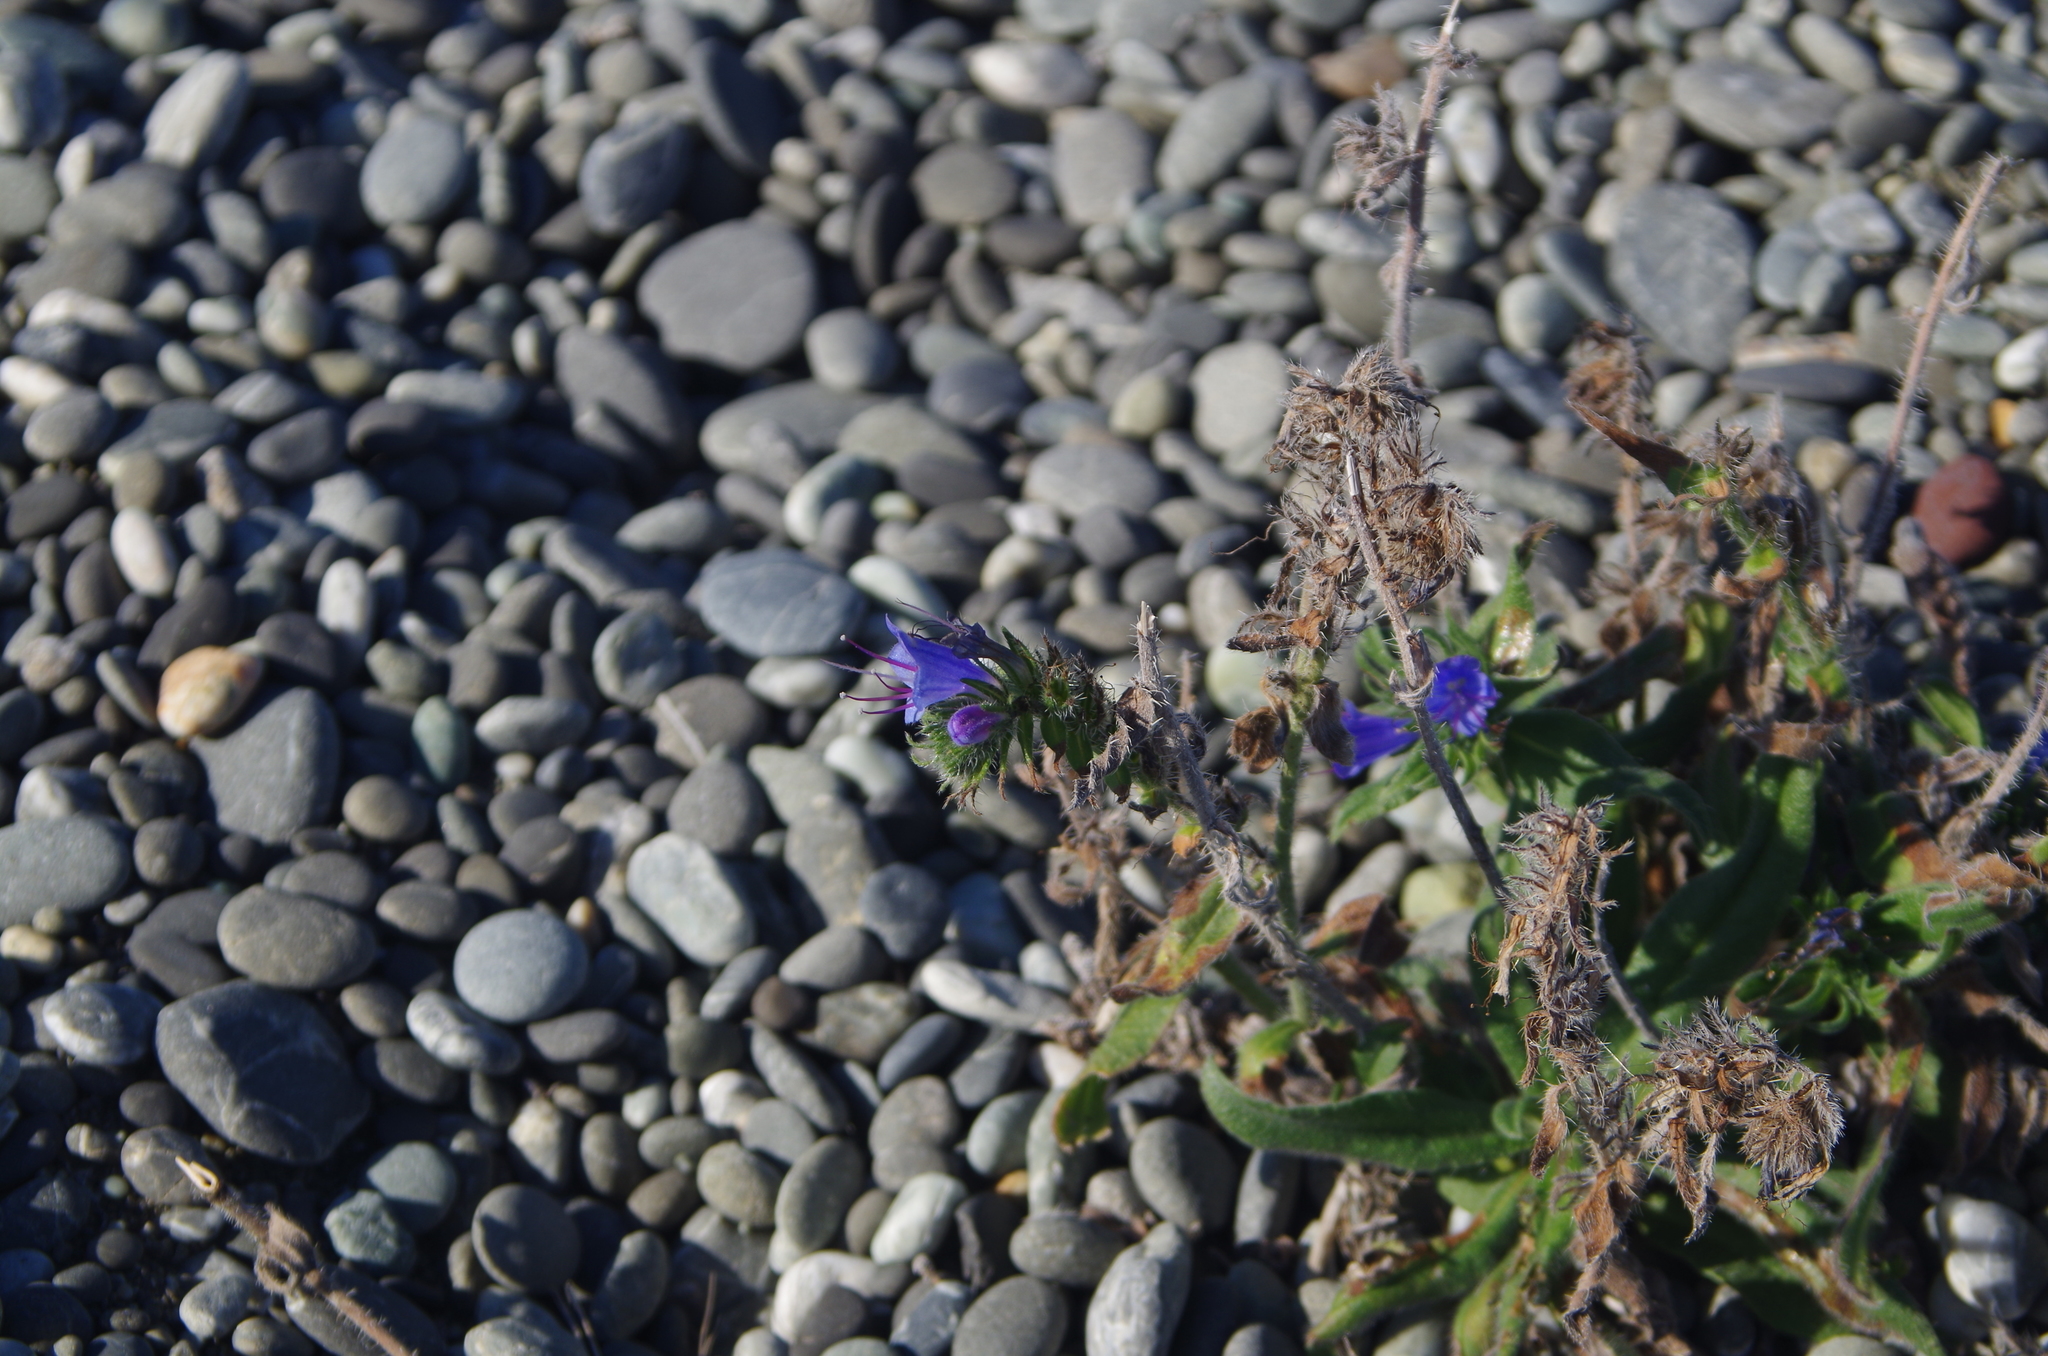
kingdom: Plantae
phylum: Tracheophyta
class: Magnoliopsida
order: Boraginales
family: Boraginaceae
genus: Echium
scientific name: Echium vulgare
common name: Common viper's bugloss
